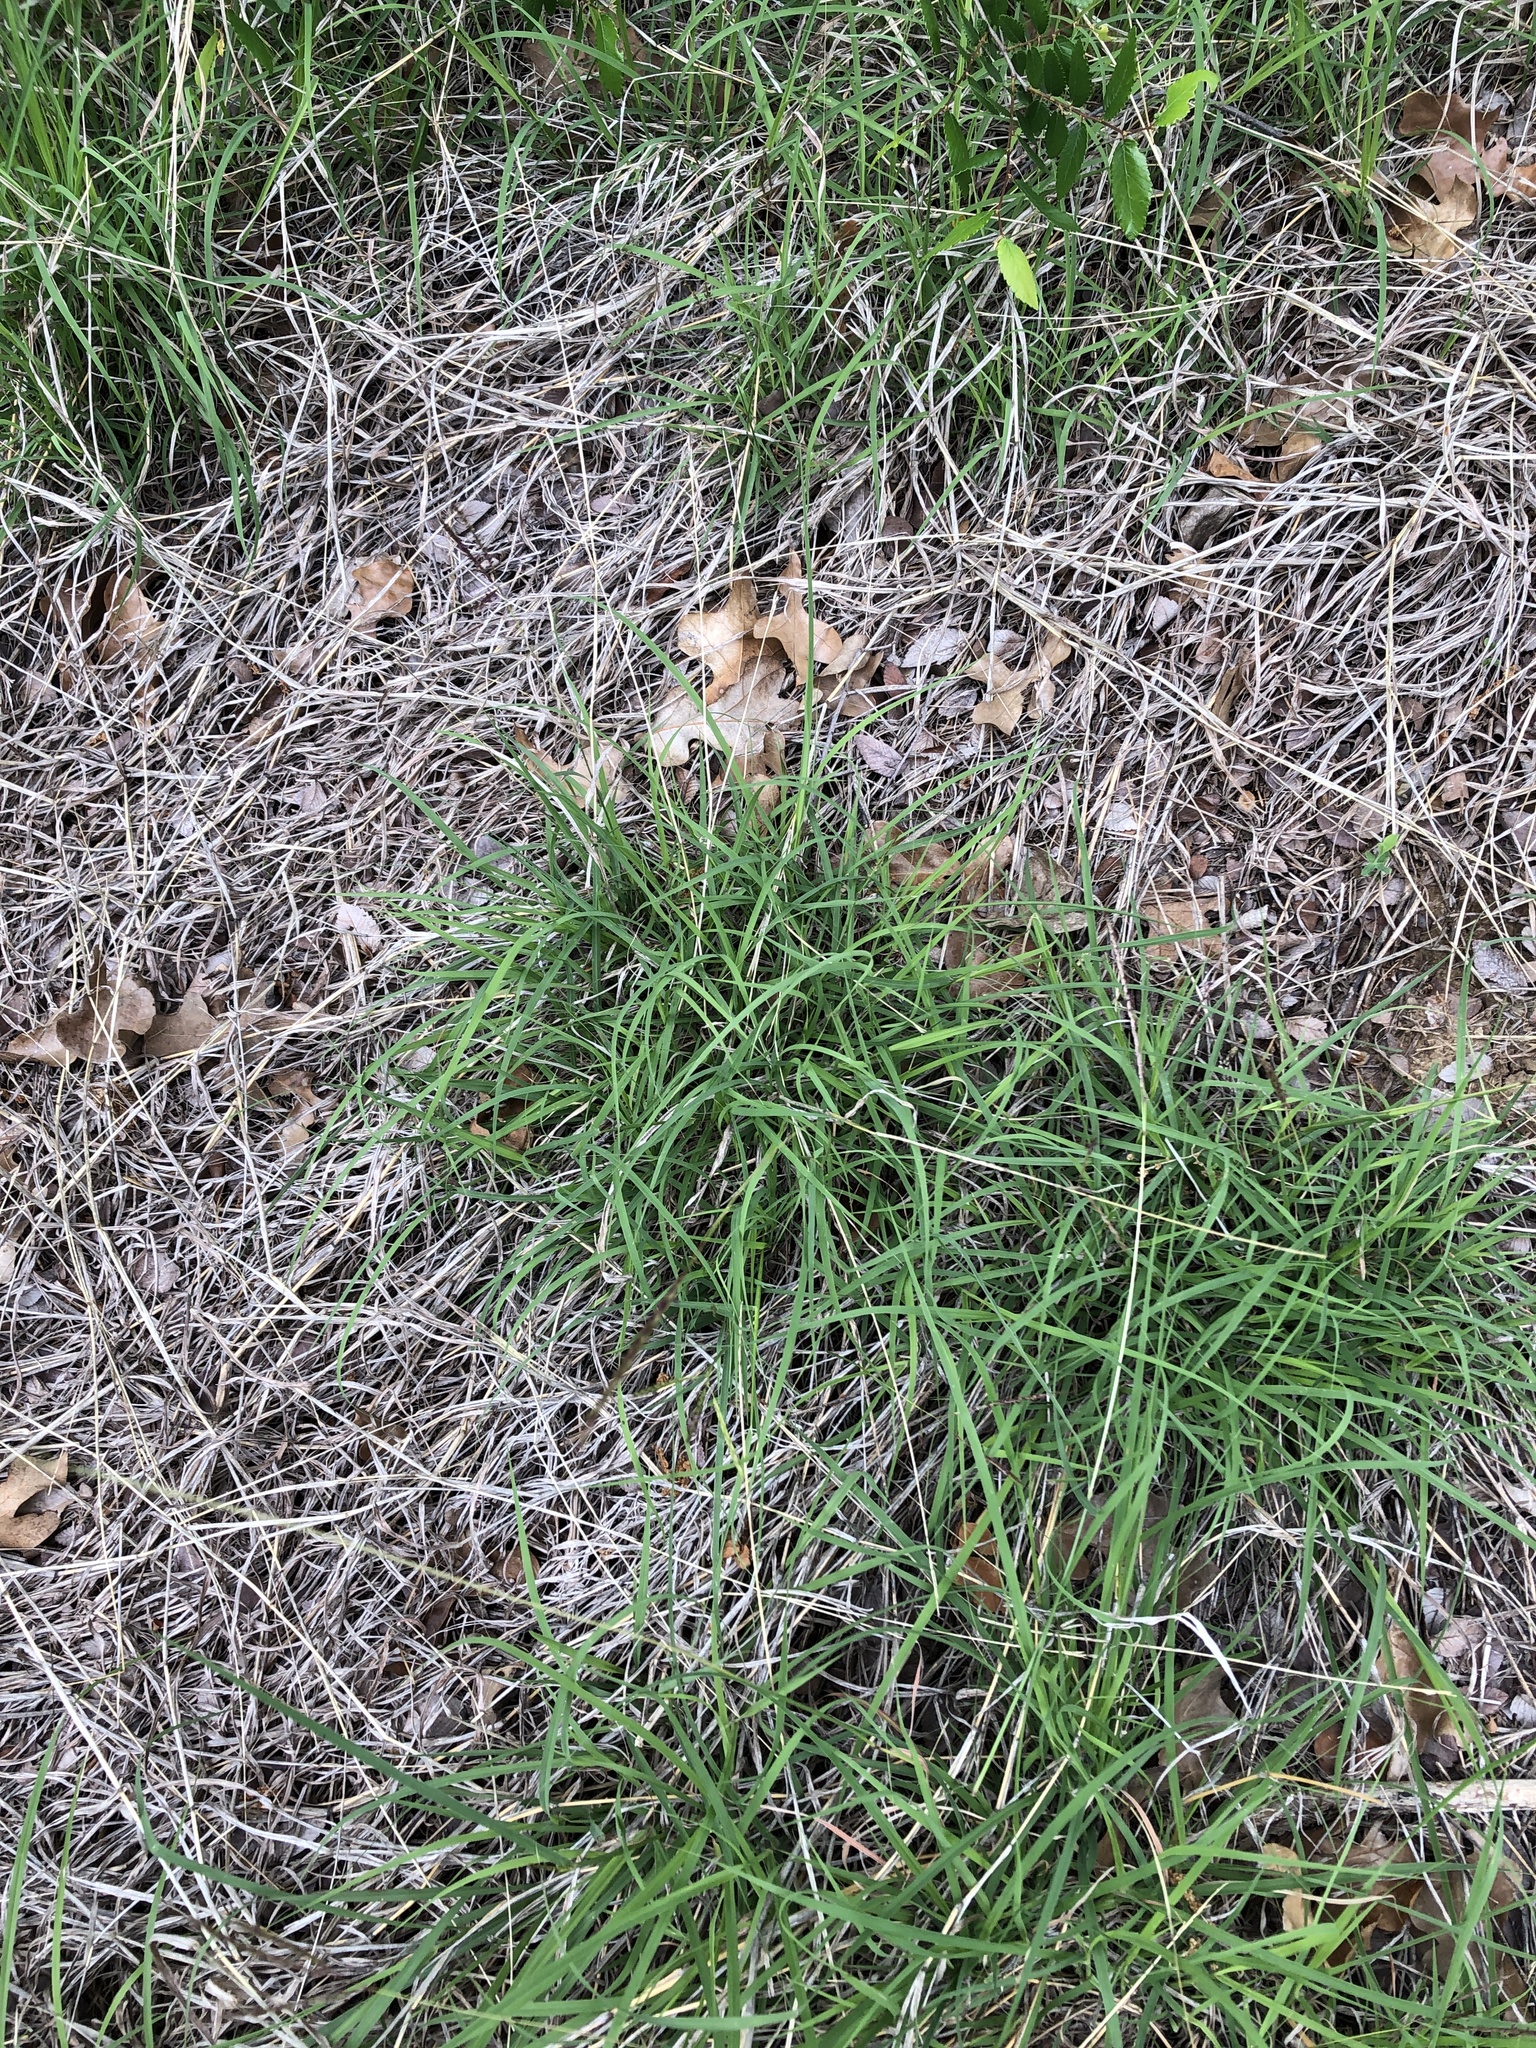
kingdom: Plantae
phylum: Tracheophyta
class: Liliopsida
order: Poales
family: Poaceae
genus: Bothriochloa
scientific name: Bothriochloa ischaemum
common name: Yellow bluestem
